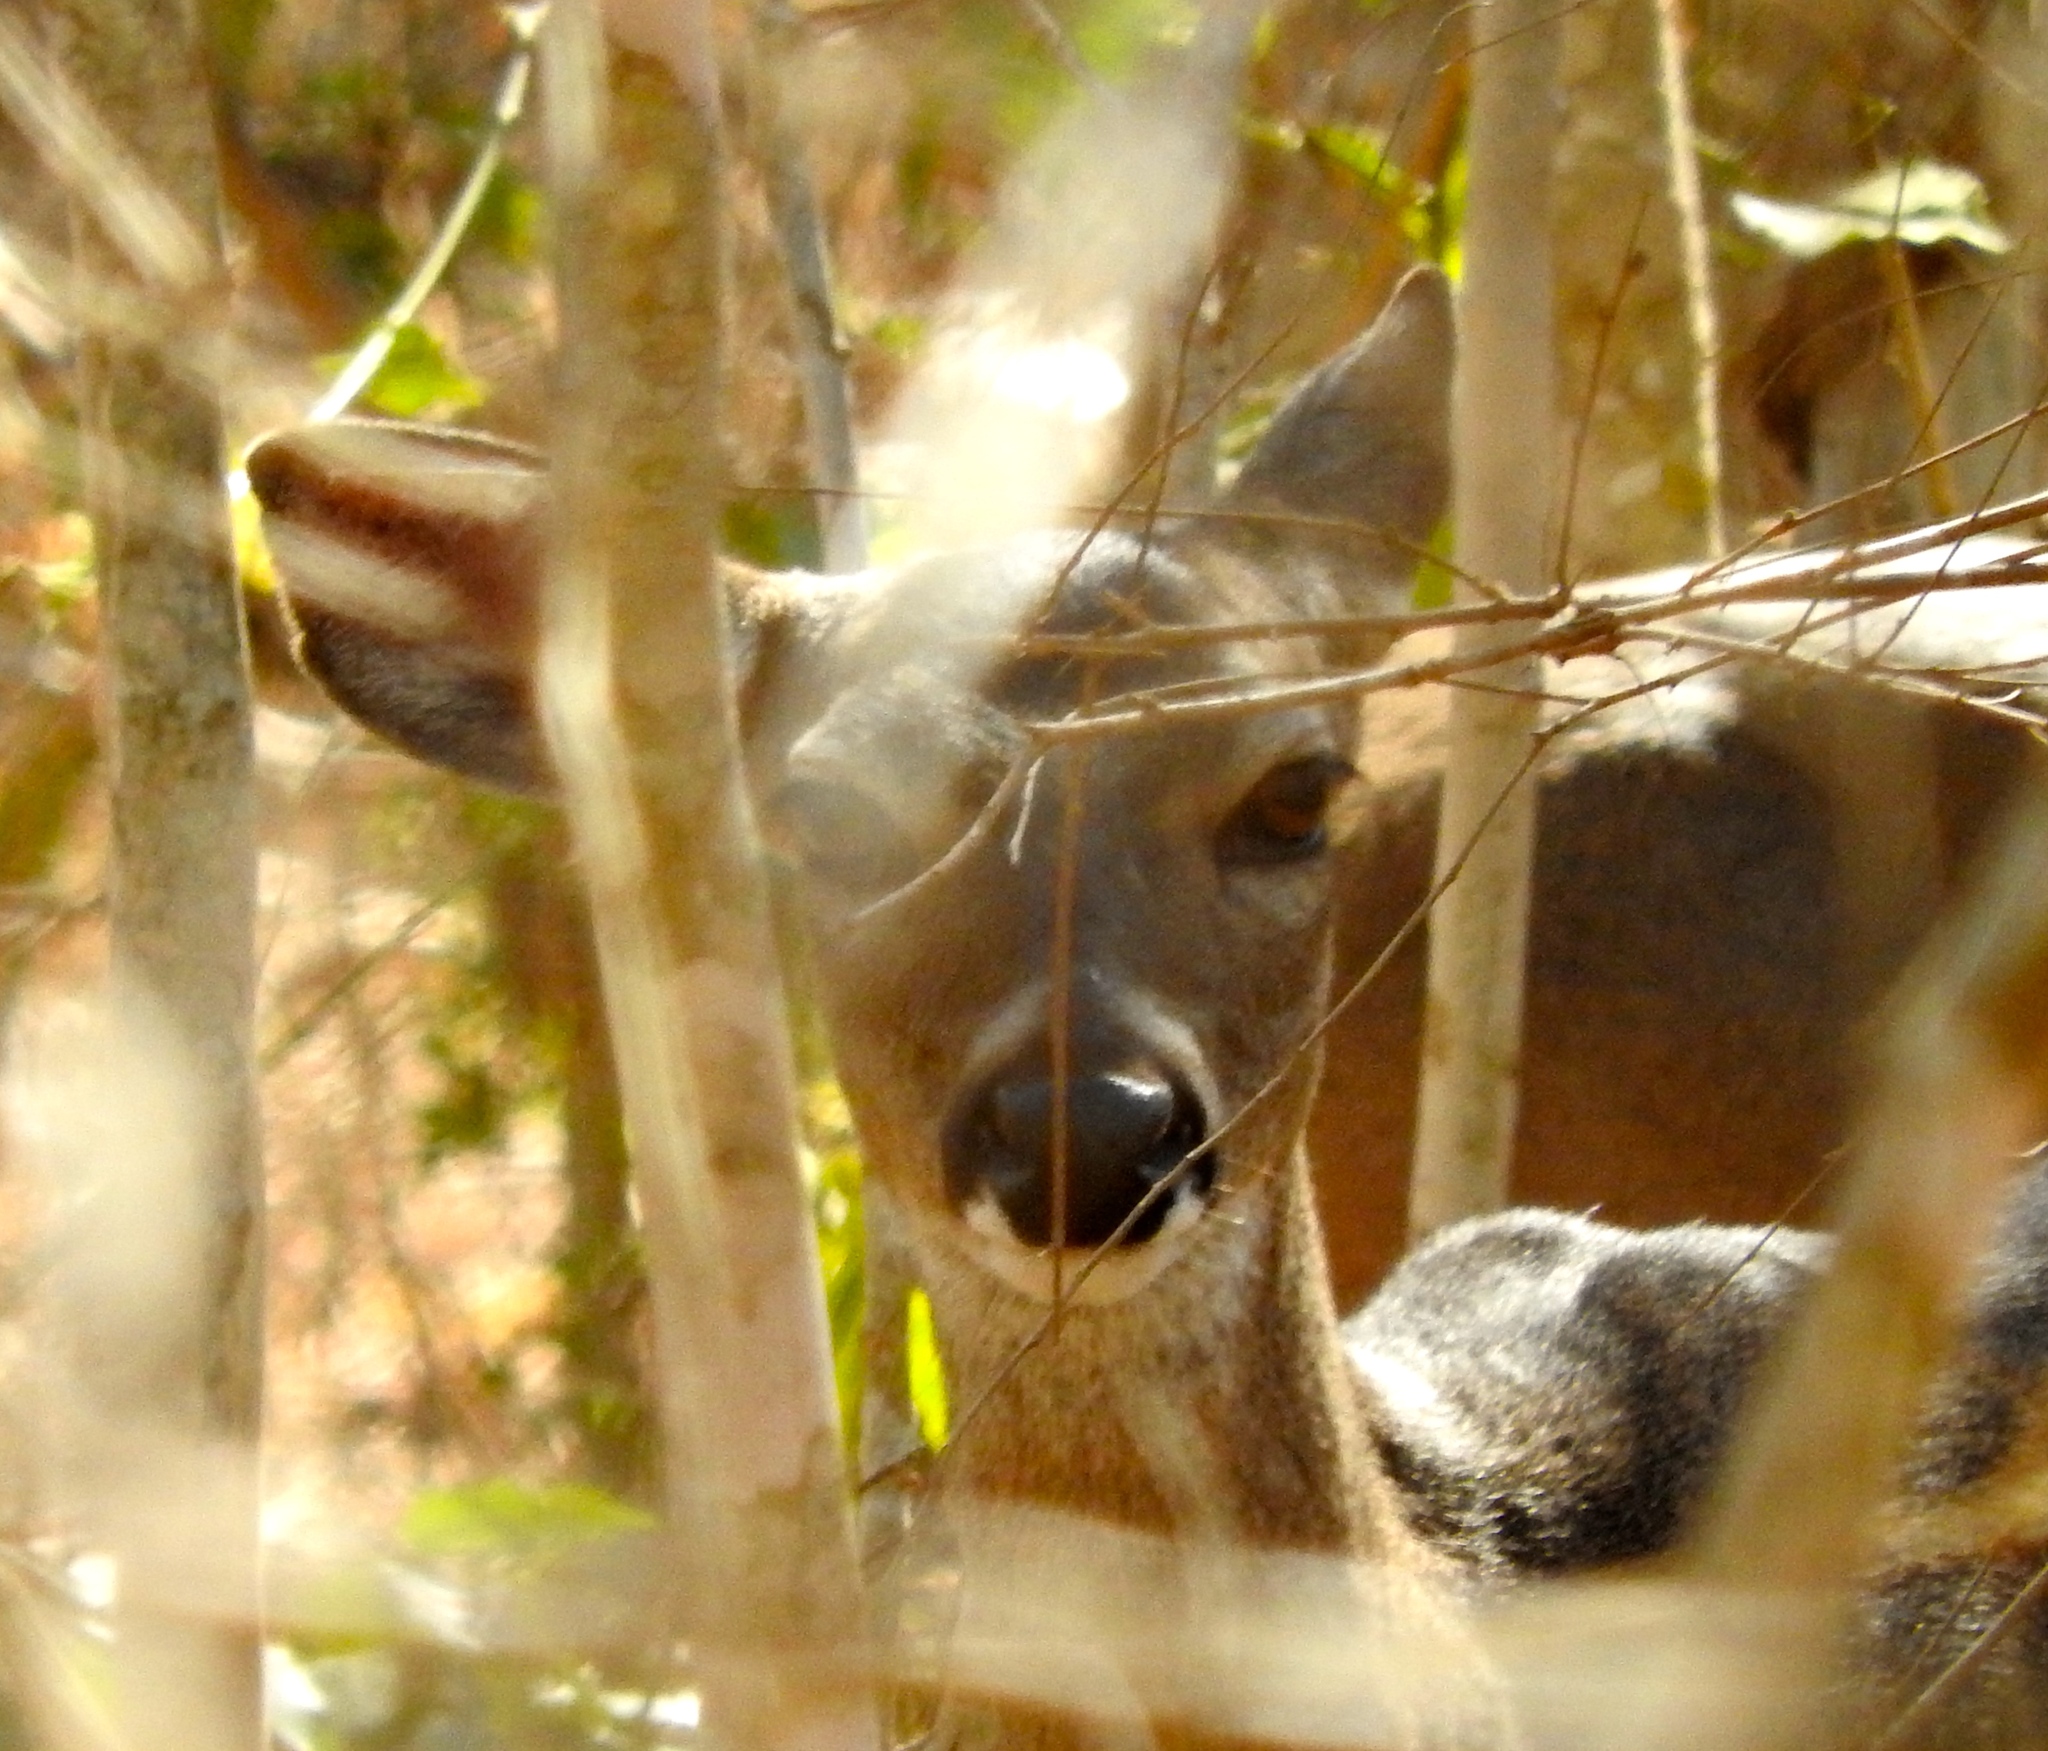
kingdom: Animalia
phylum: Chordata
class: Mammalia
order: Artiodactyla
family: Cervidae
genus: Odocoileus
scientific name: Odocoileus virginianus
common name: White-tailed deer
